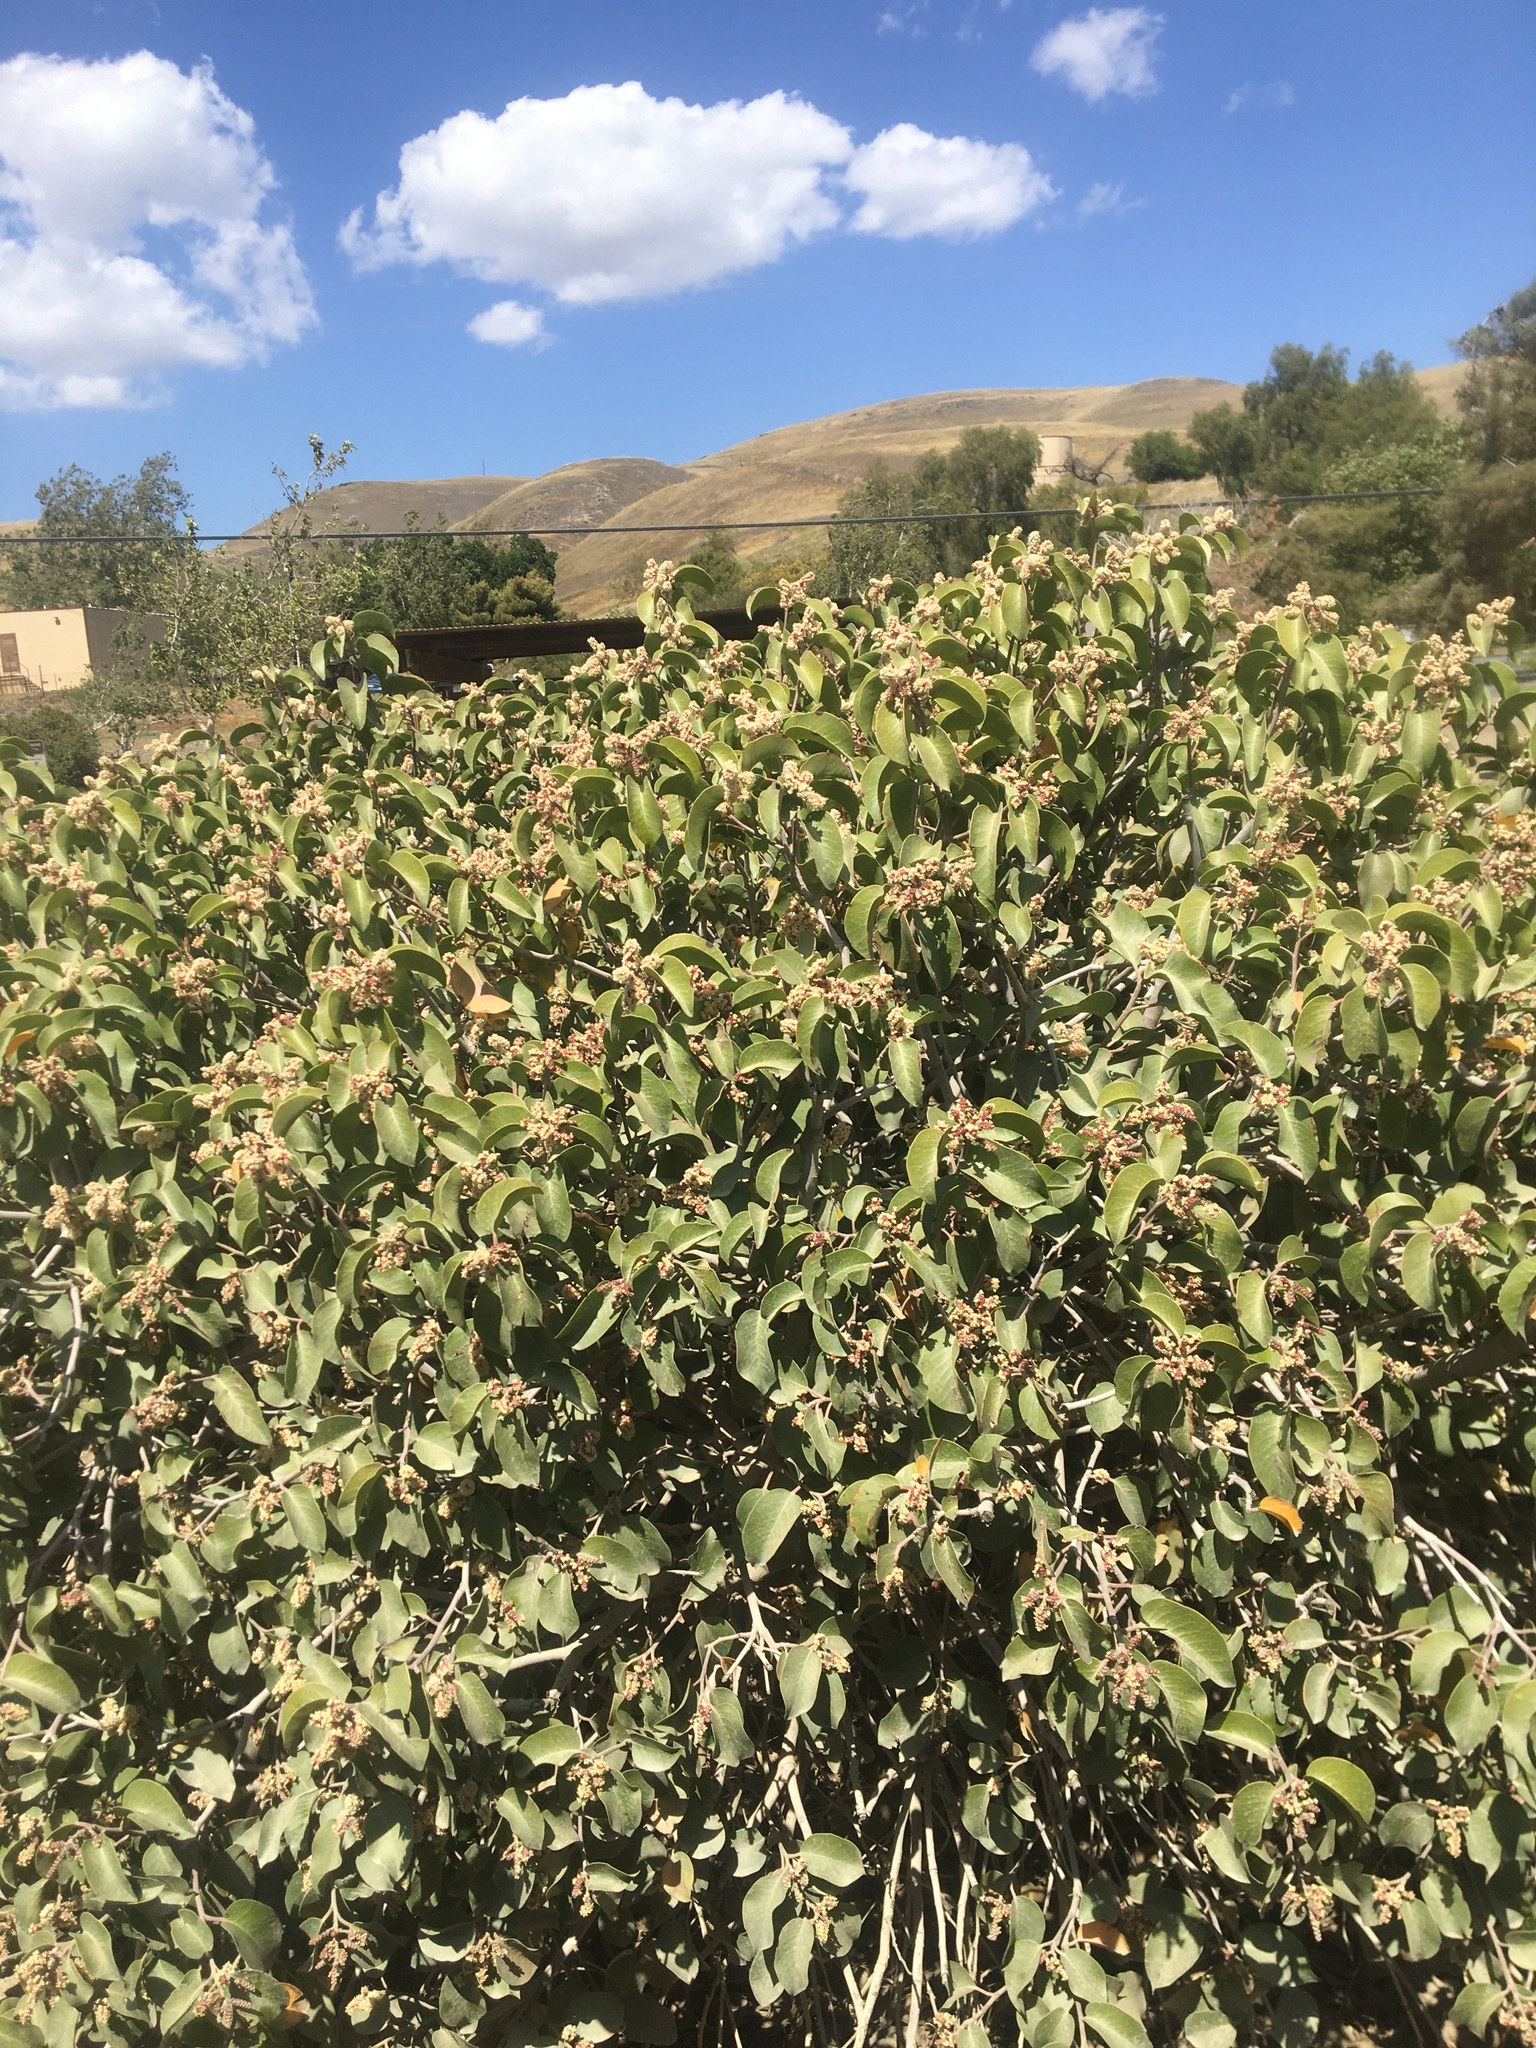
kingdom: Plantae
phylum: Tracheophyta
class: Magnoliopsida
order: Sapindales
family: Anacardiaceae
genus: Rhus
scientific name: Rhus ovata
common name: Sugar sumac
